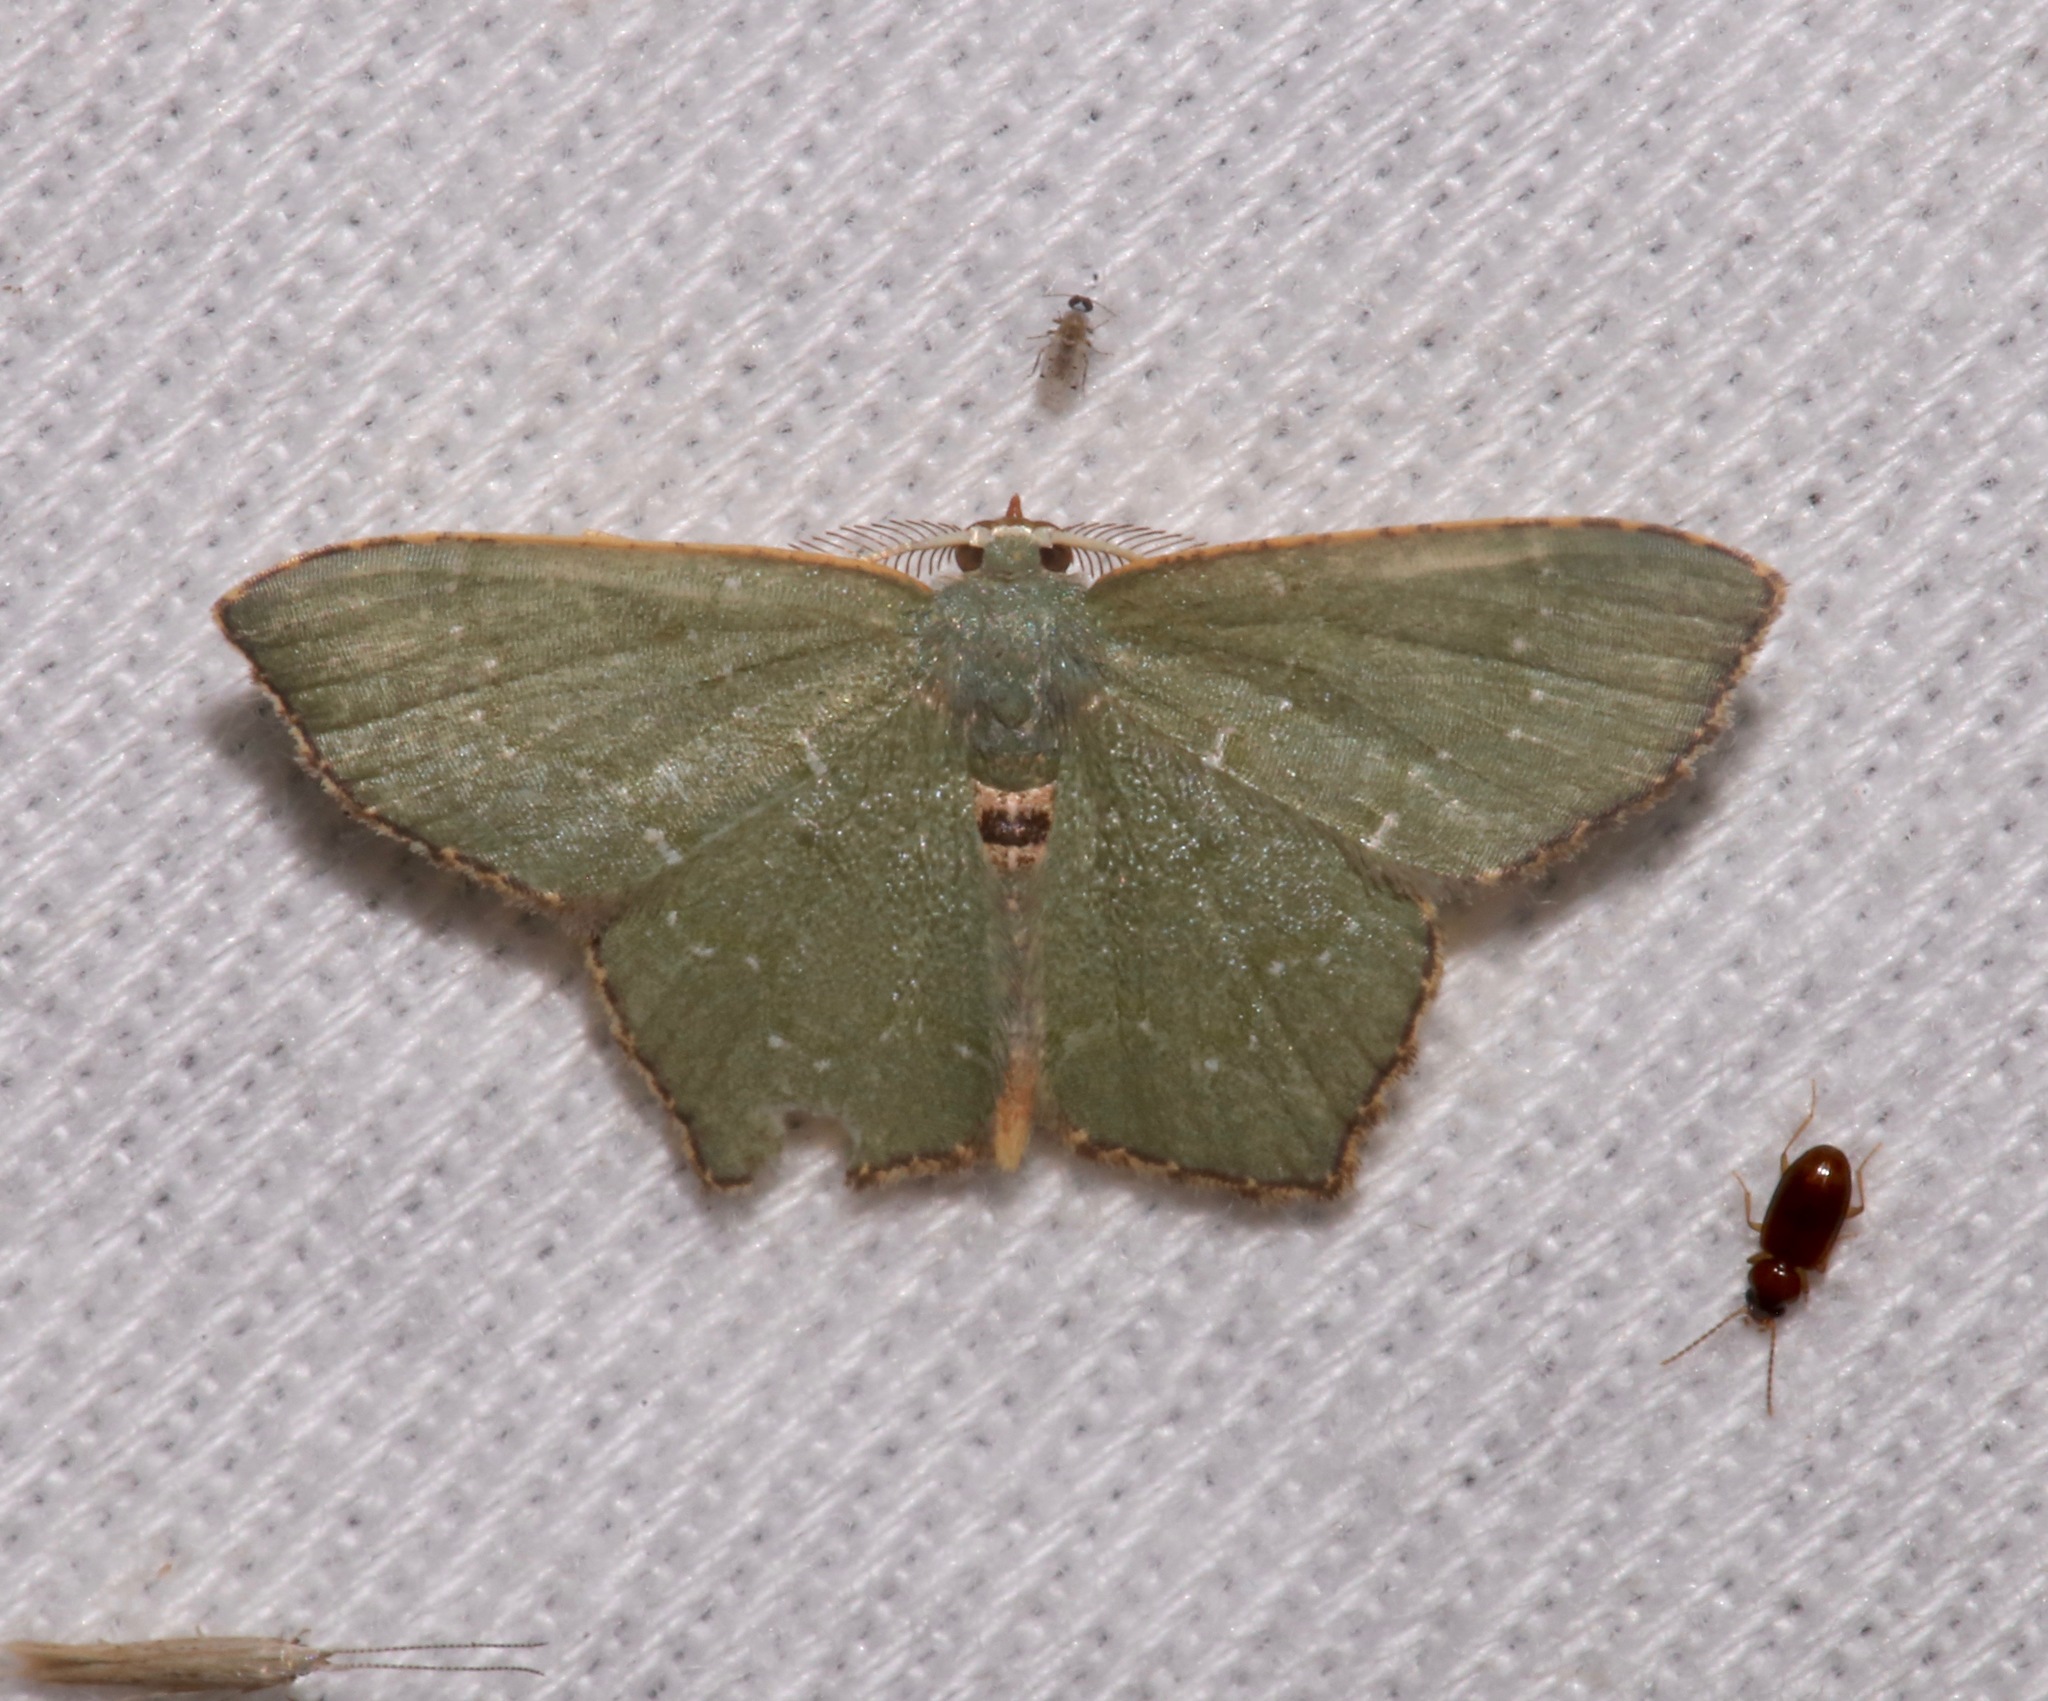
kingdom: Animalia
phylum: Arthropoda
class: Insecta
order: Lepidoptera
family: Geometridae
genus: Chloropteryx
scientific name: Chloropteryx tepperaria
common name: Angle winged emerald moth
